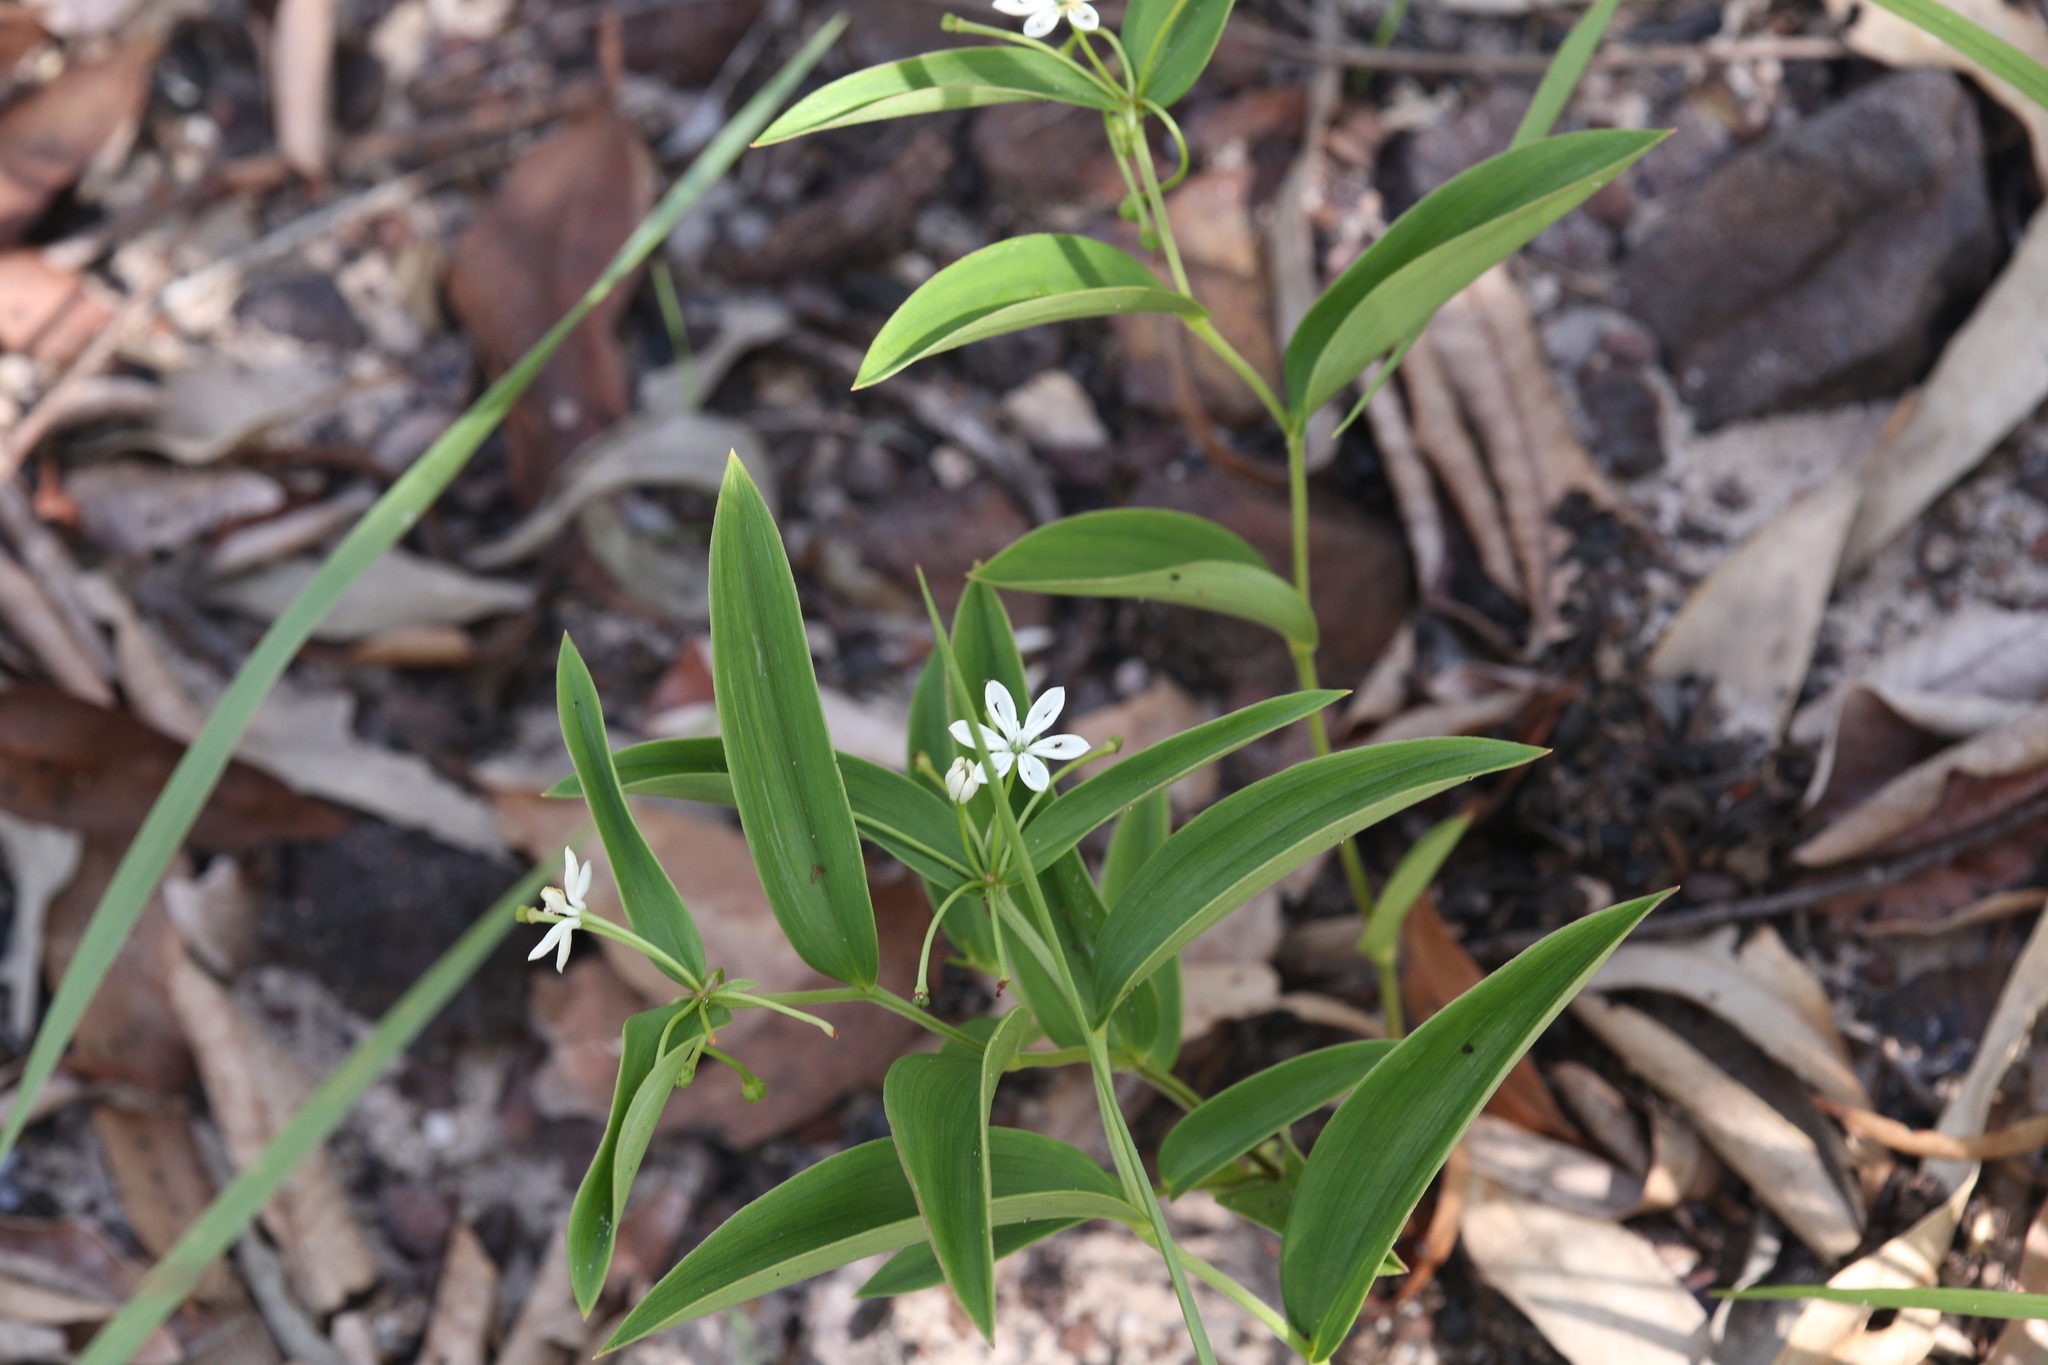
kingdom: Plantae
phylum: Tracheophyta
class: Liliopsida
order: Liliales
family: Colchicaceae
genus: Schelhammera
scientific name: Schelhammera multiflora
